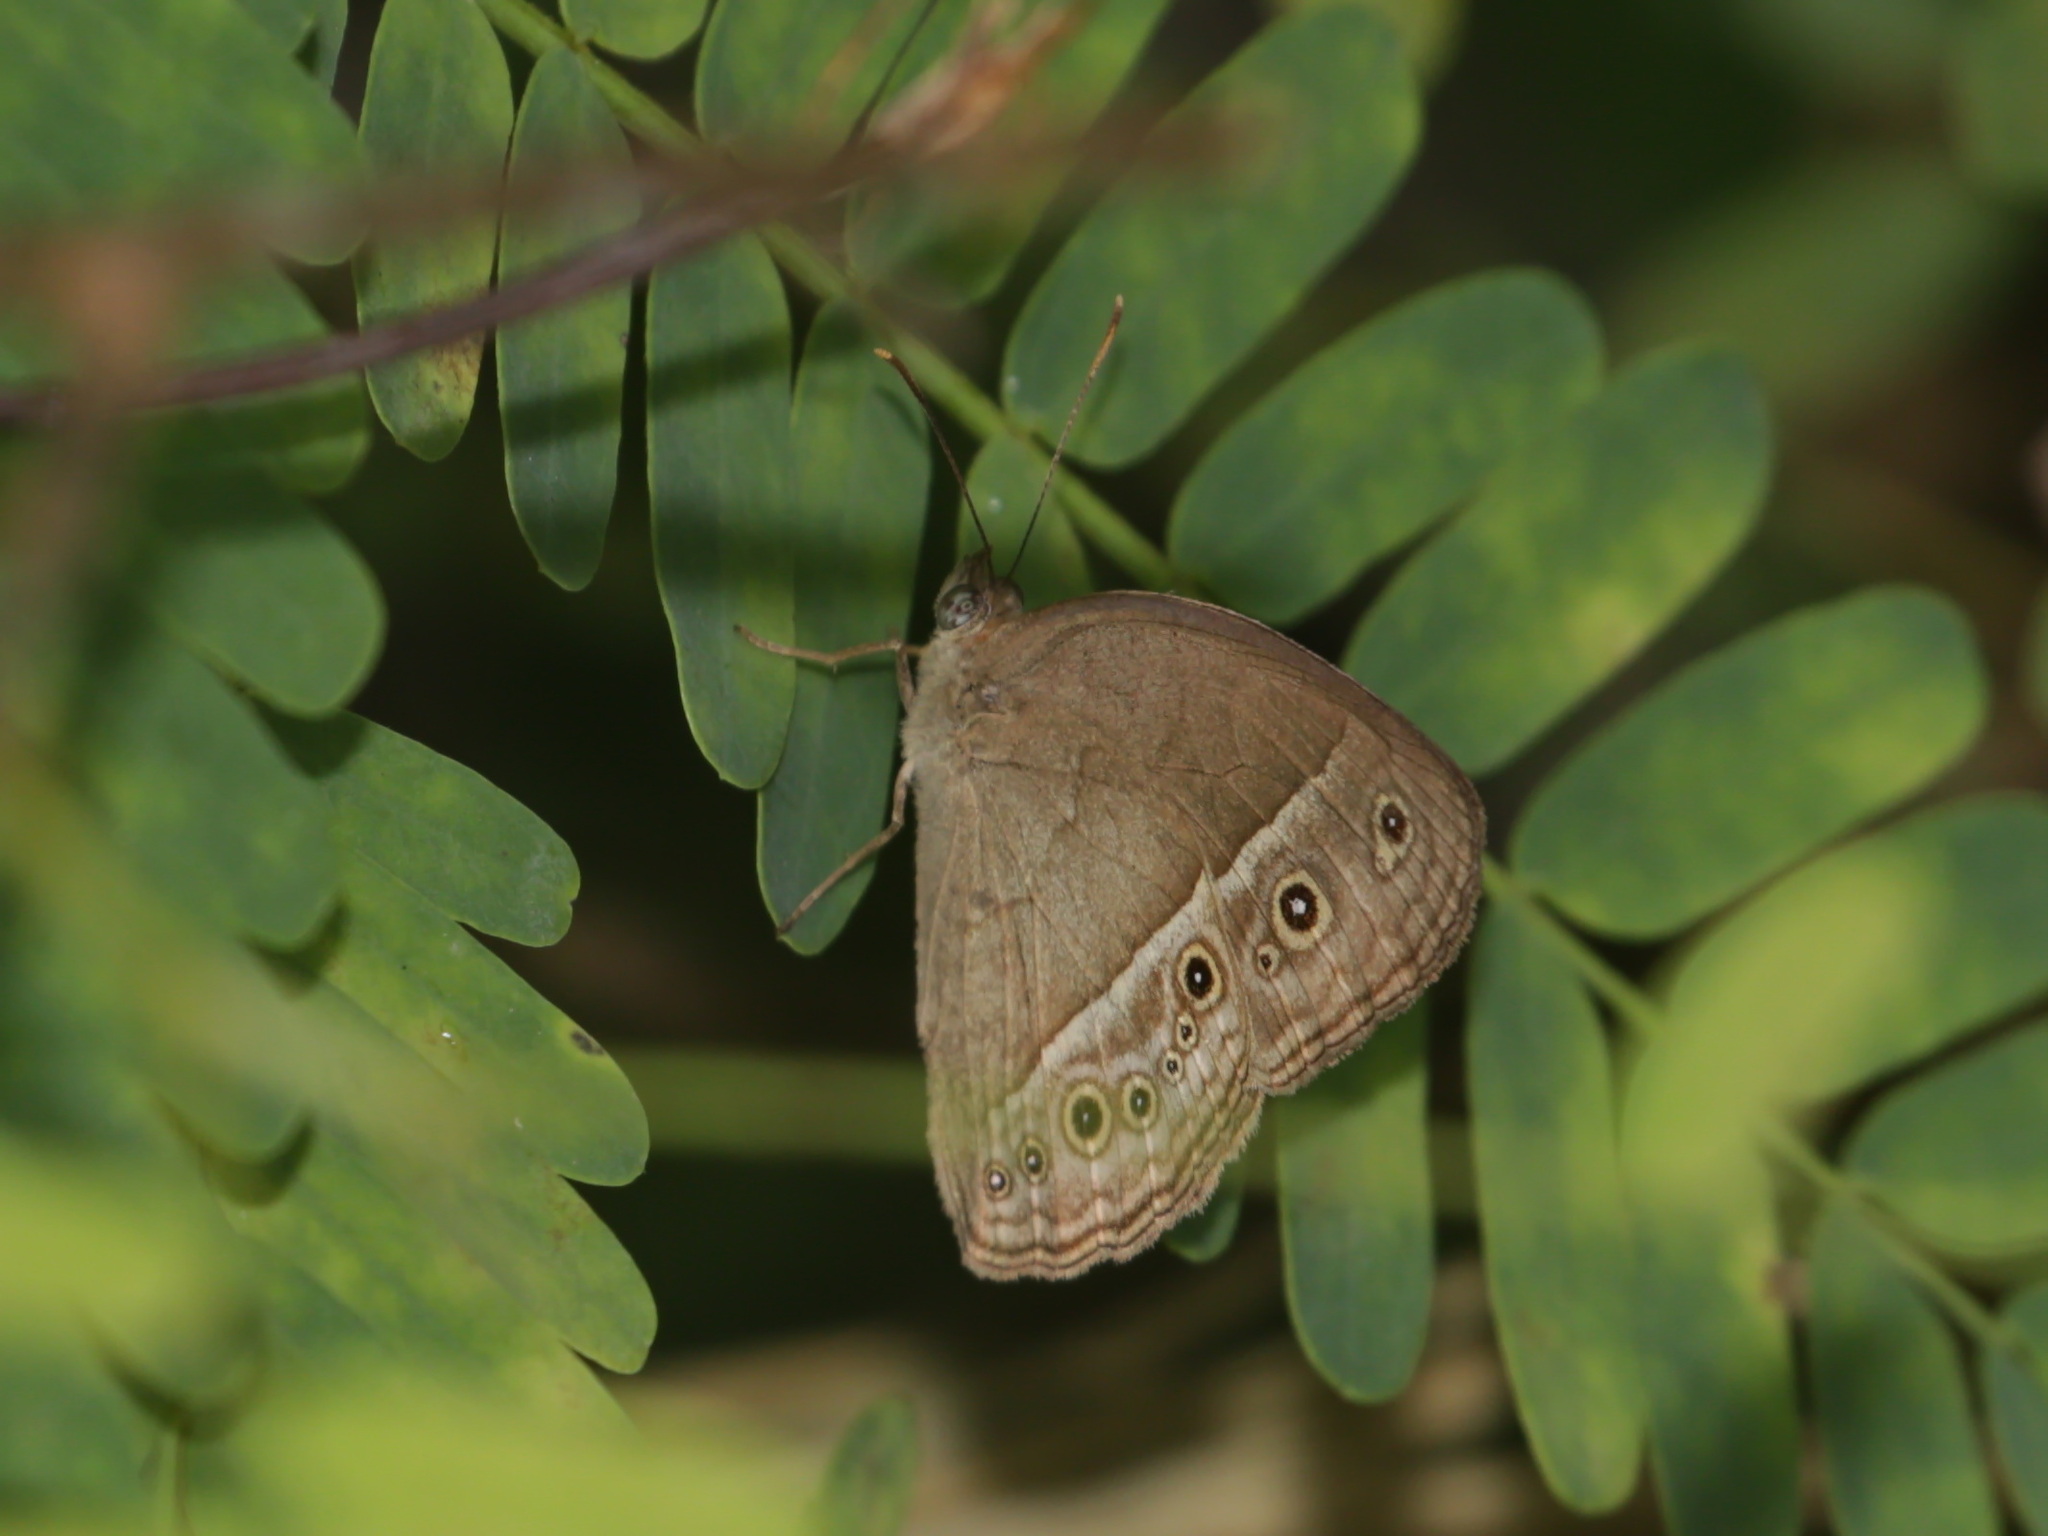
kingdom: Animalia
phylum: Arthropoda
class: Insecta
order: Lepidoptera
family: Nymphalidae
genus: Mycalesis
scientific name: Mycalesis perseoides
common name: Burmese bushbrown
